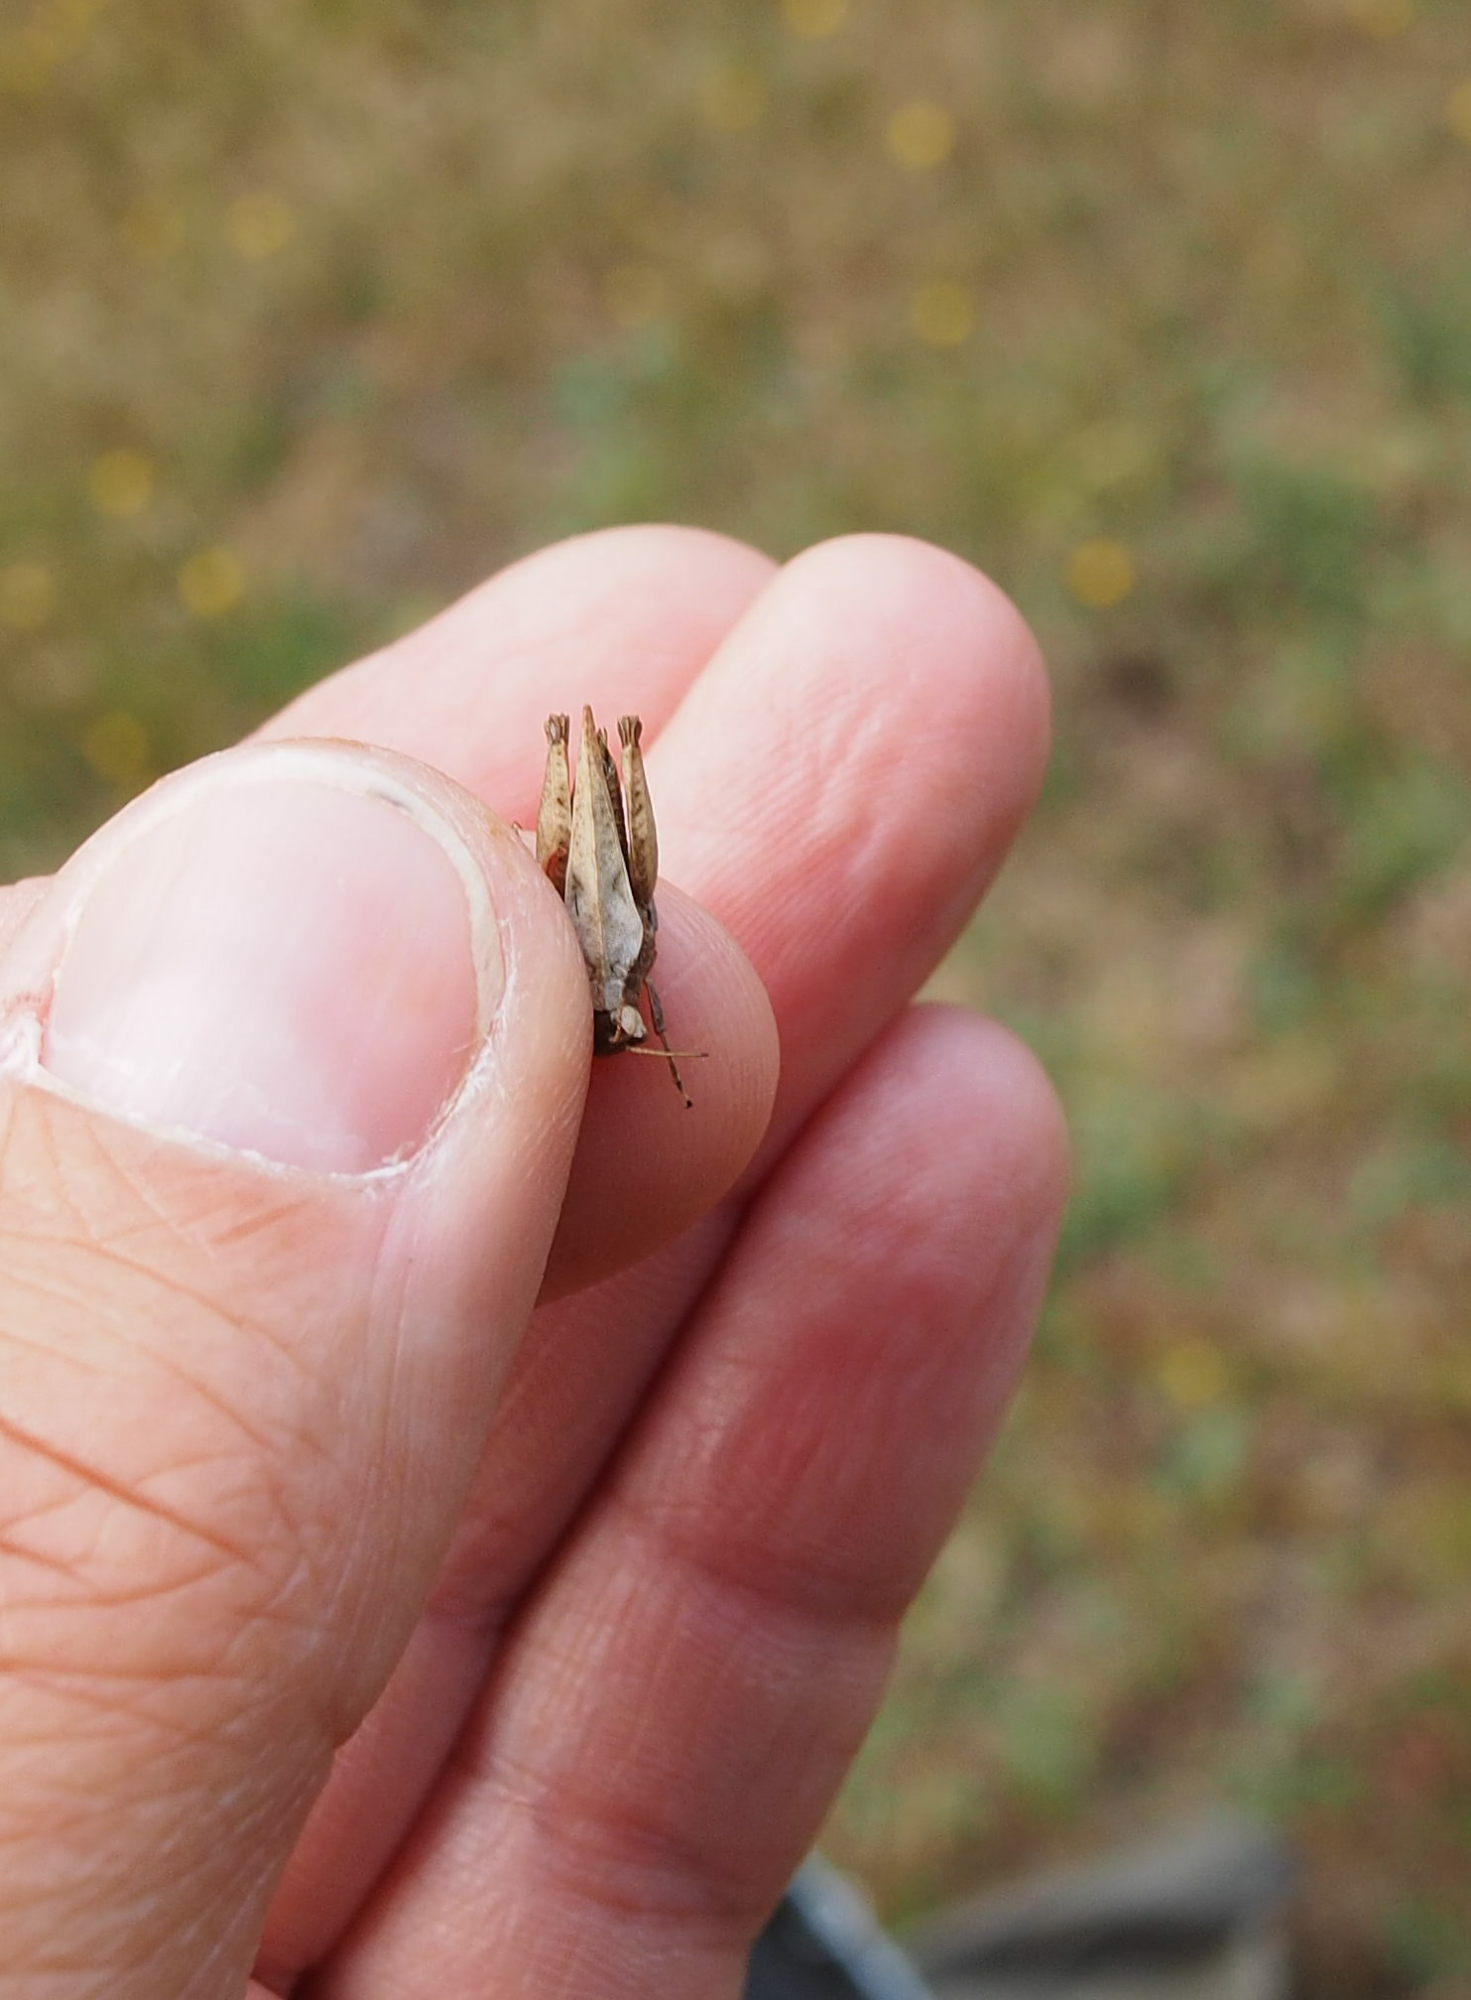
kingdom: Animalia
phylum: Arthropoda
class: Insecta
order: Orthoptera
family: Tetrigidae
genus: Tetrix
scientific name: Tetrix undulata
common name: Common groundhopper
